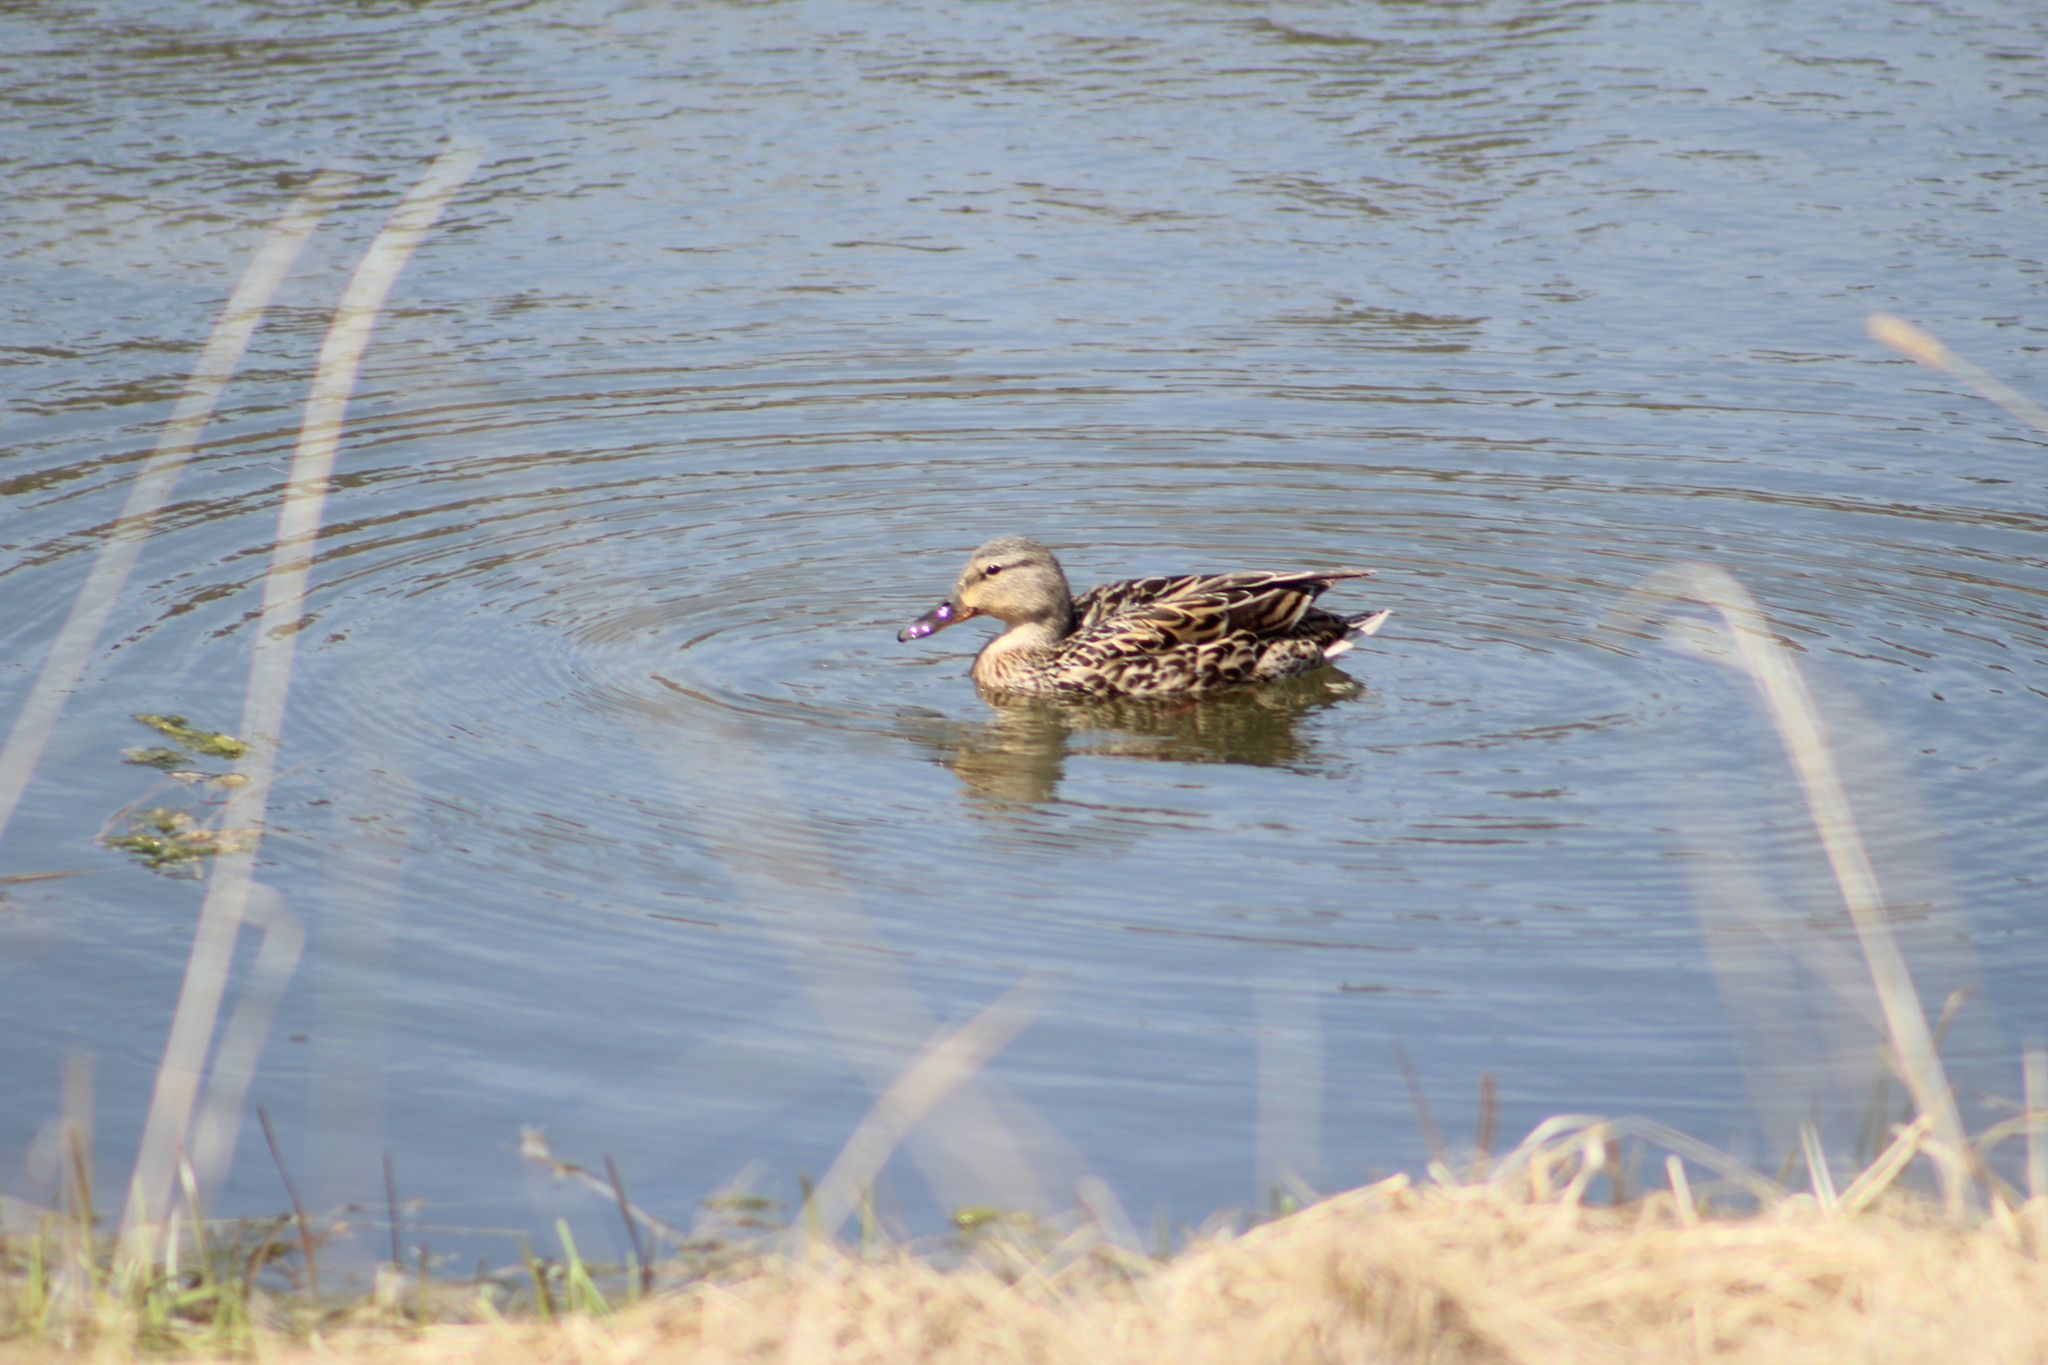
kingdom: Animalia
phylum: Chordata
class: Aves
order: Anseriformes
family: Anatidae
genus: Anas
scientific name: Anas platyrhynchos
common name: Mallard
